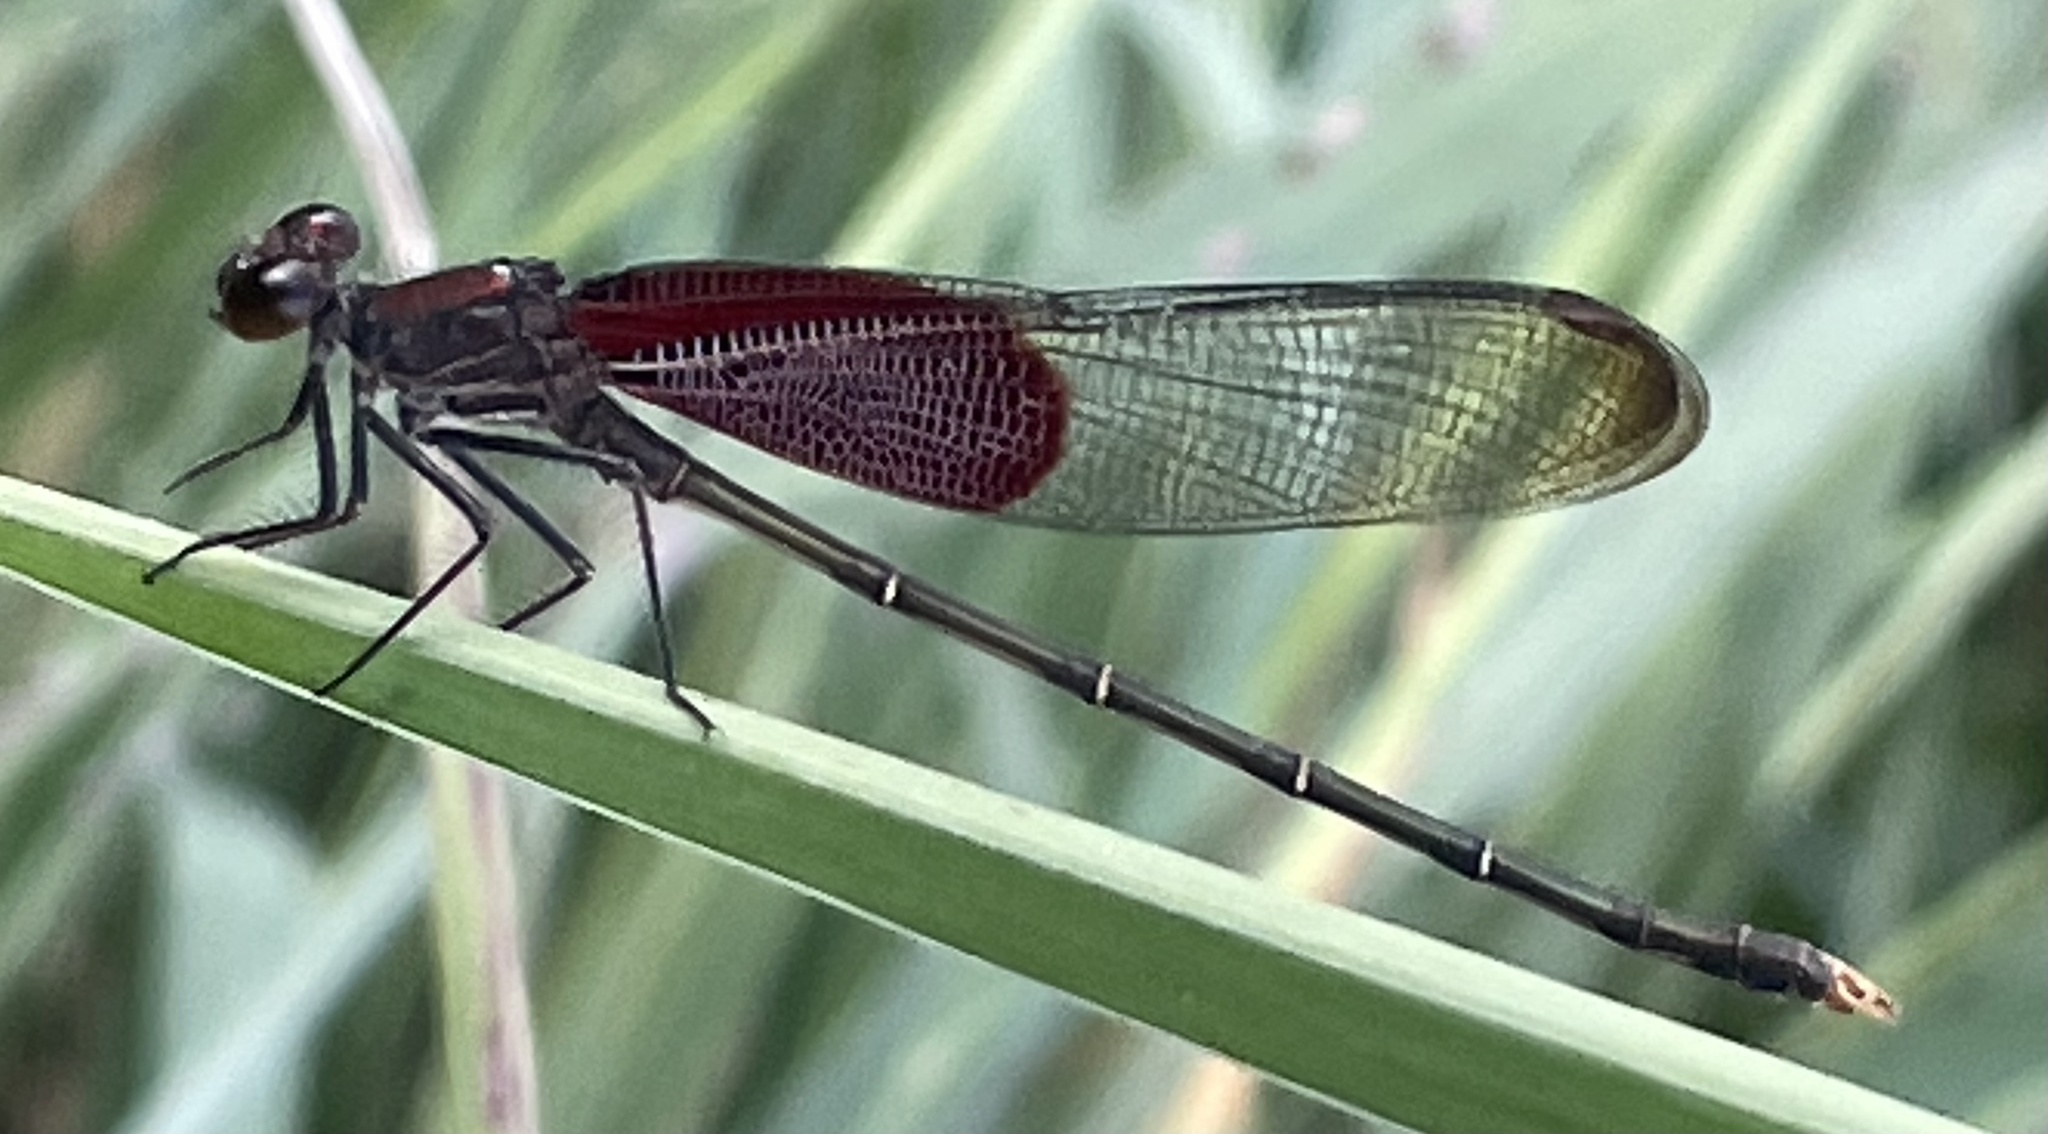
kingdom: Animalia
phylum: Arthropoda
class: Insecta
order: Odonata
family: Calopterygidae
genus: Hetaerina
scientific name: Hetaerina americana
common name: American rubyspot
